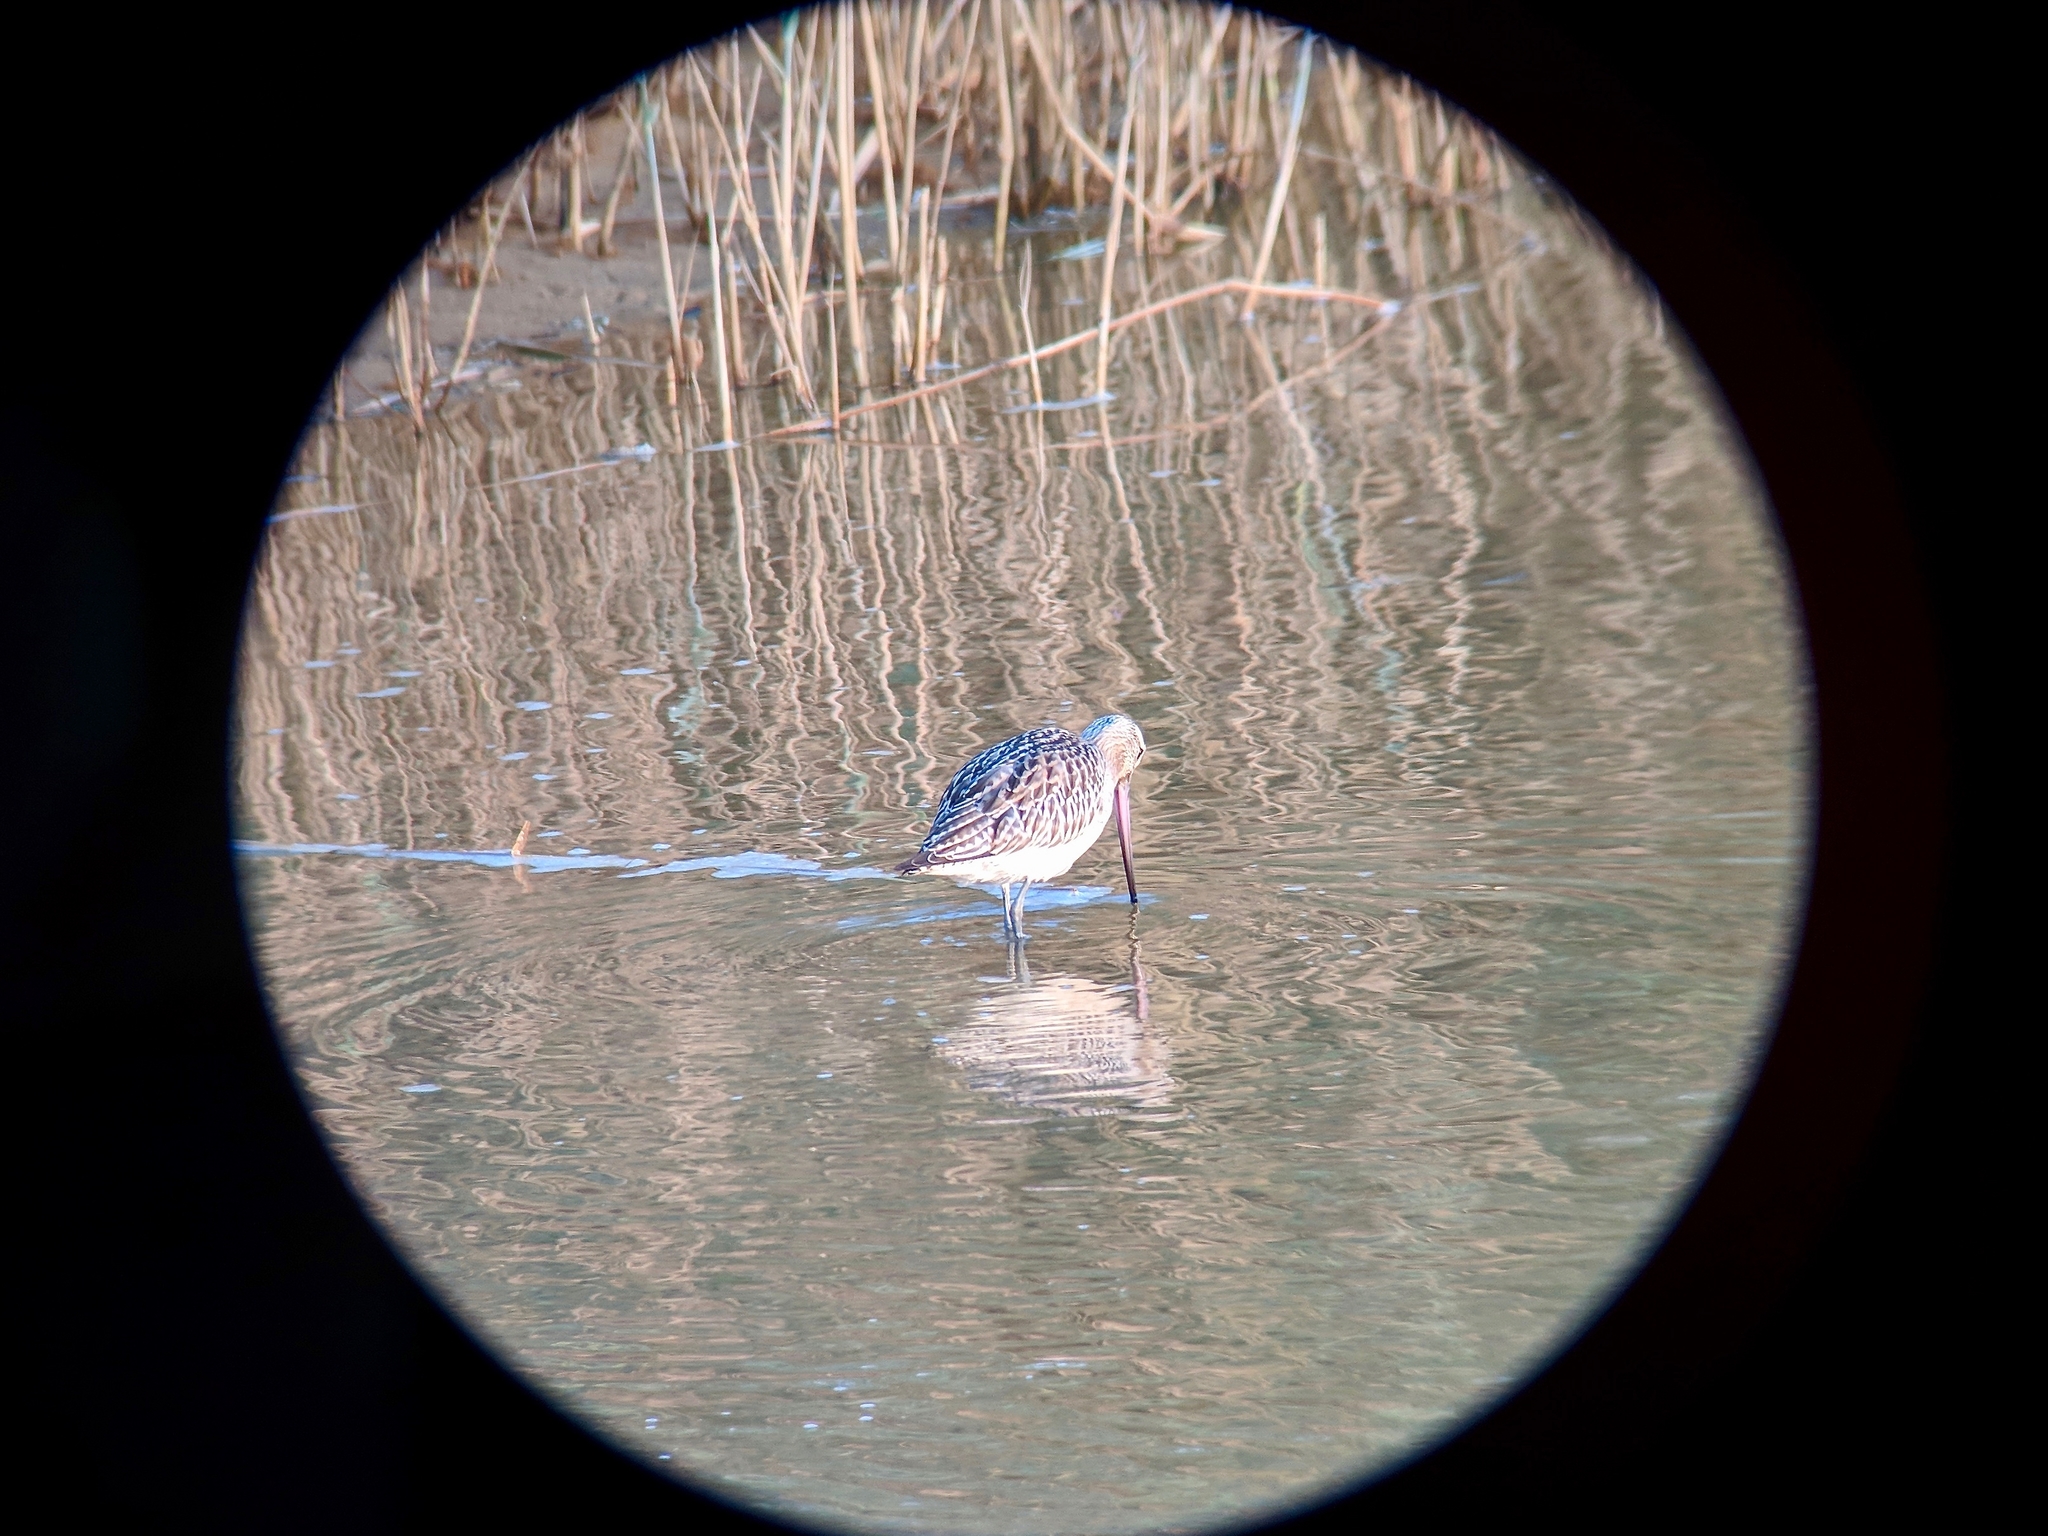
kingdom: Animalia
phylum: Chordata
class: Aves
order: Charadriiformes
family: Scolopacidae
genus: Limosa
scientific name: Limosa lapponica
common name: Bar-tailed godwit
